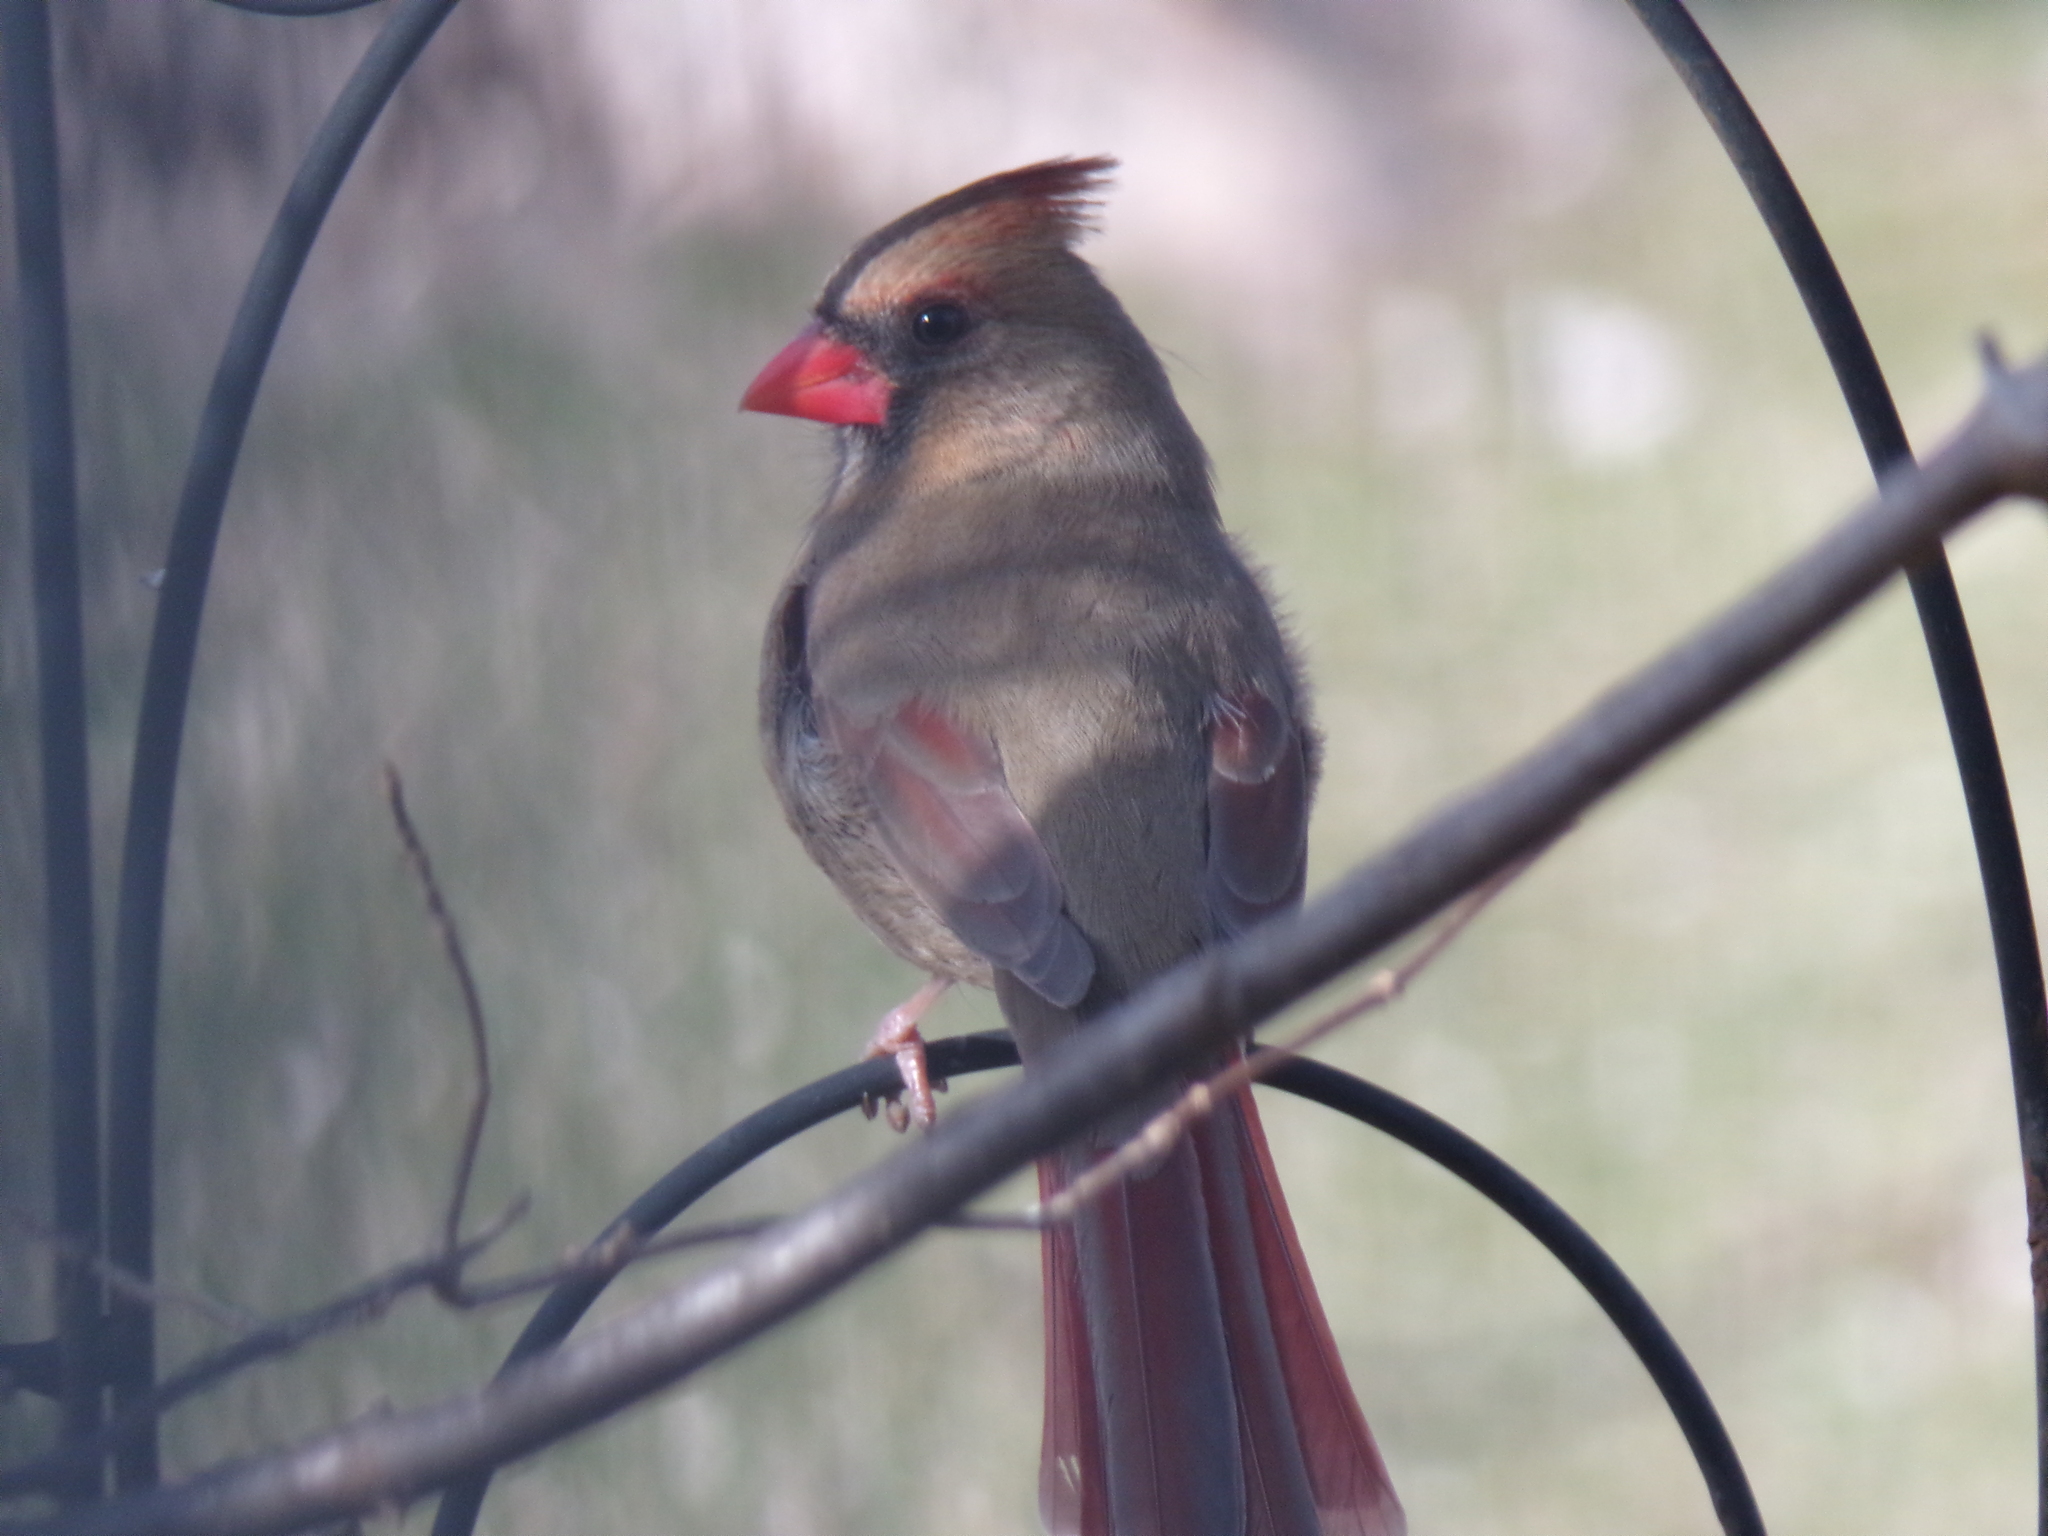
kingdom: Animalia
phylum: Chordata
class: Aves
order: Passeriformes
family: Cardinalidae
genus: Cardinalis
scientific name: Cardinalis cardinalis
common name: Northern cardinal
